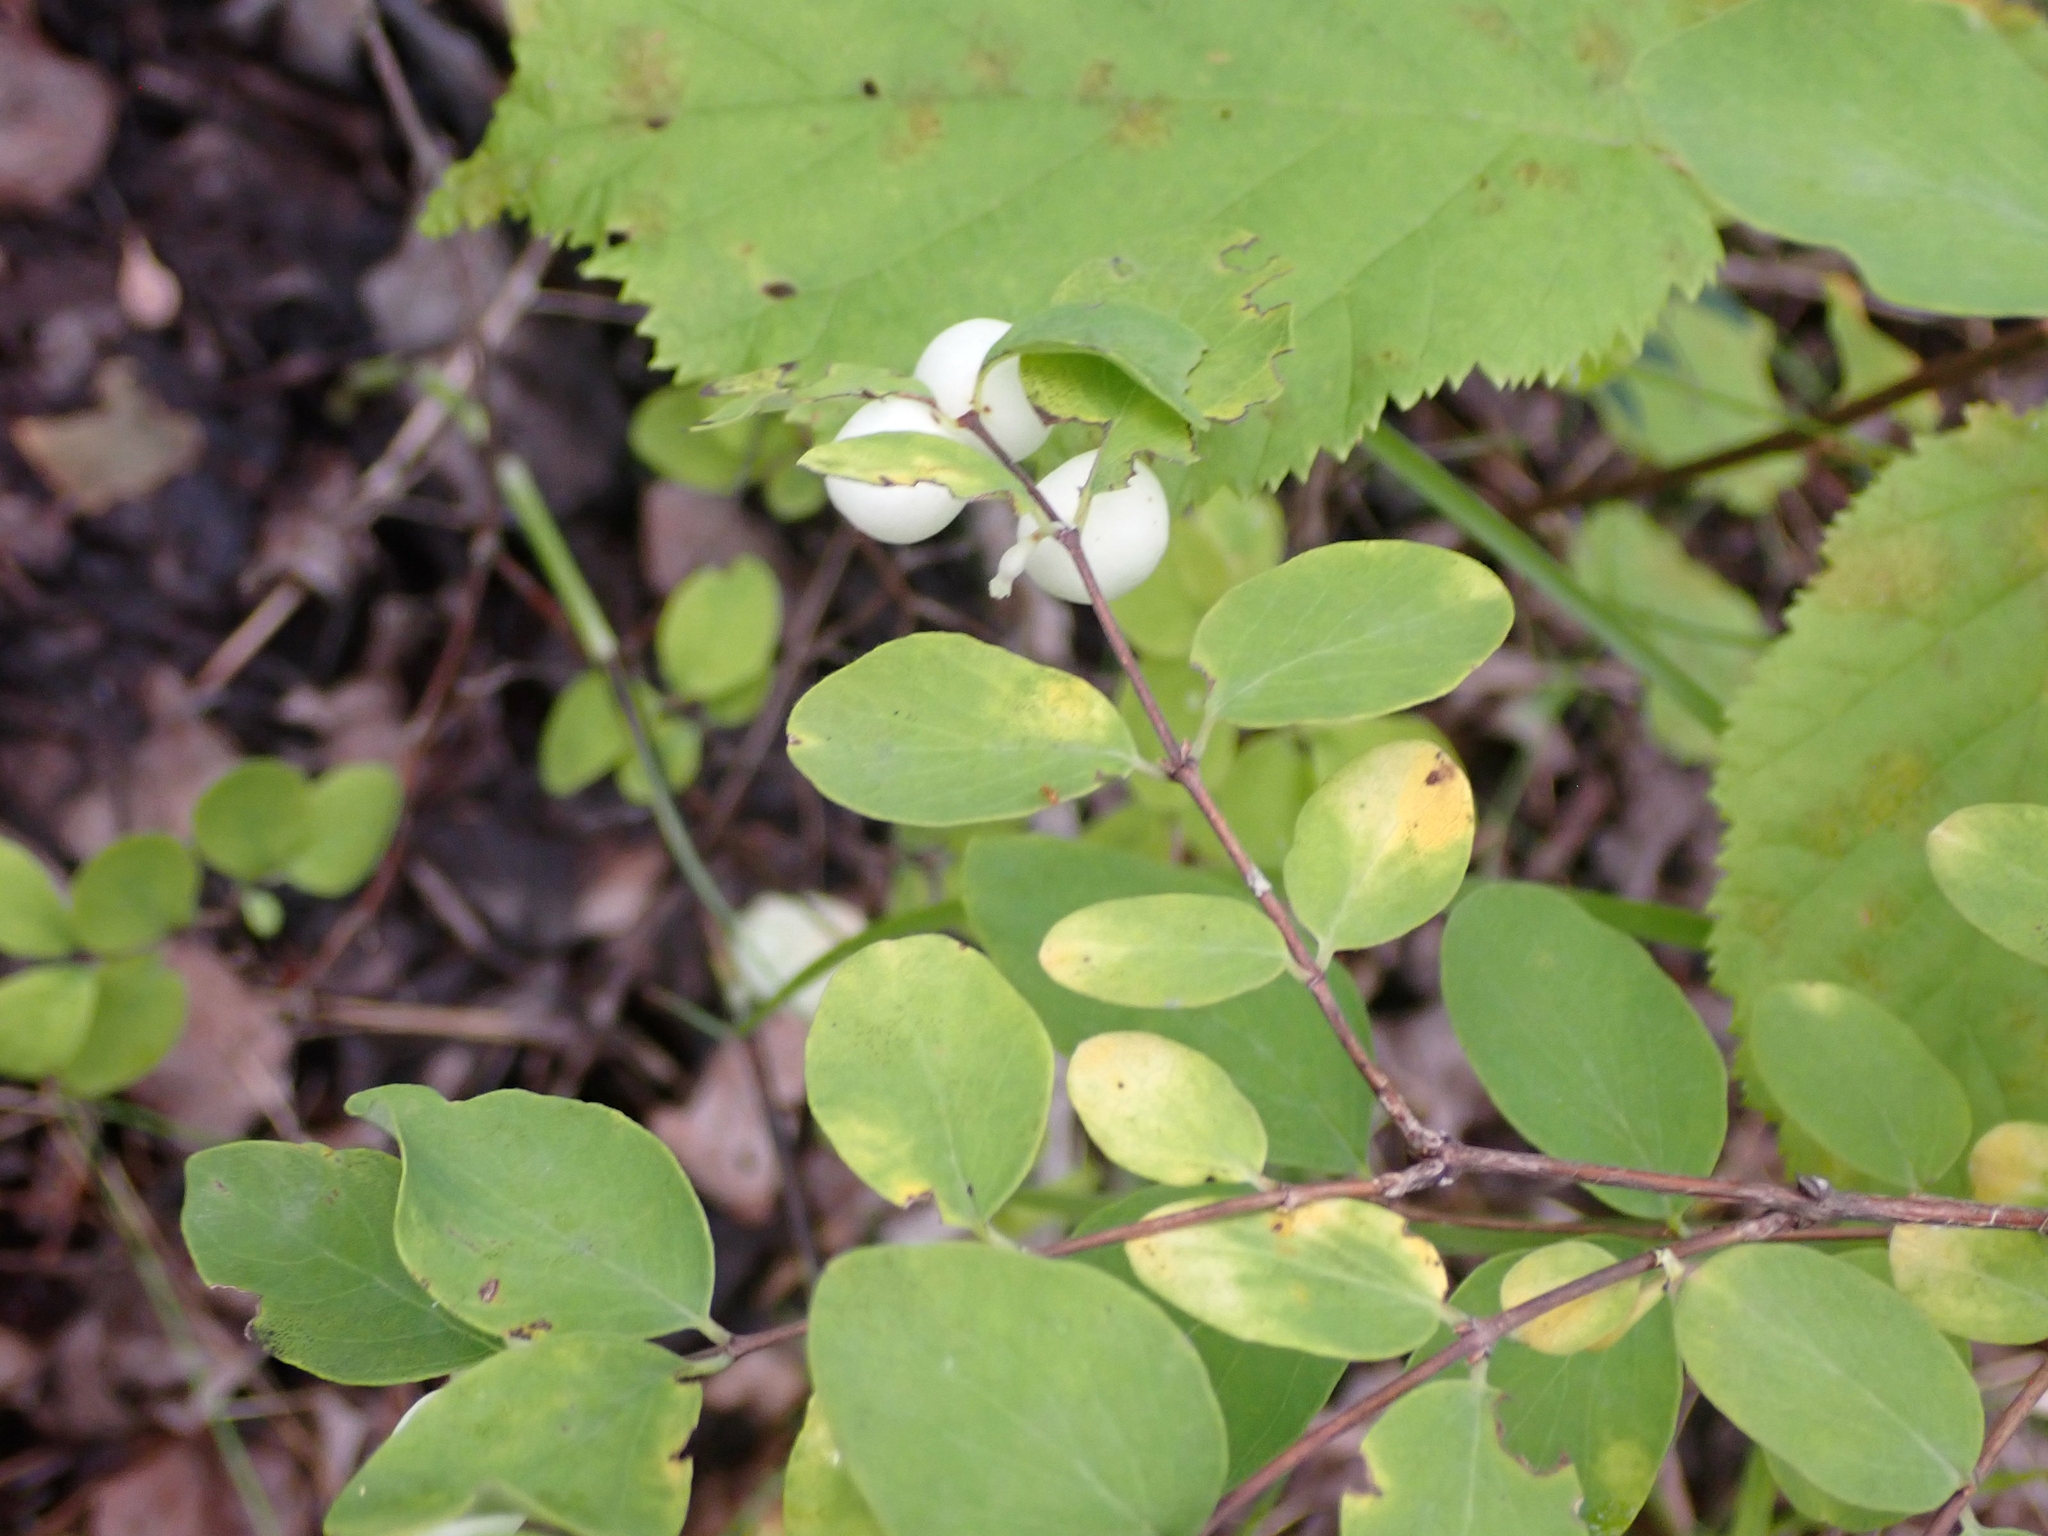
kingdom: Plantae
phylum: Tracheophyta
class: Magnoliopsida
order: Dipsacales
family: Caprifoliaceae
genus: Symphoricarpos
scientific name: Symphoricarpos albus
